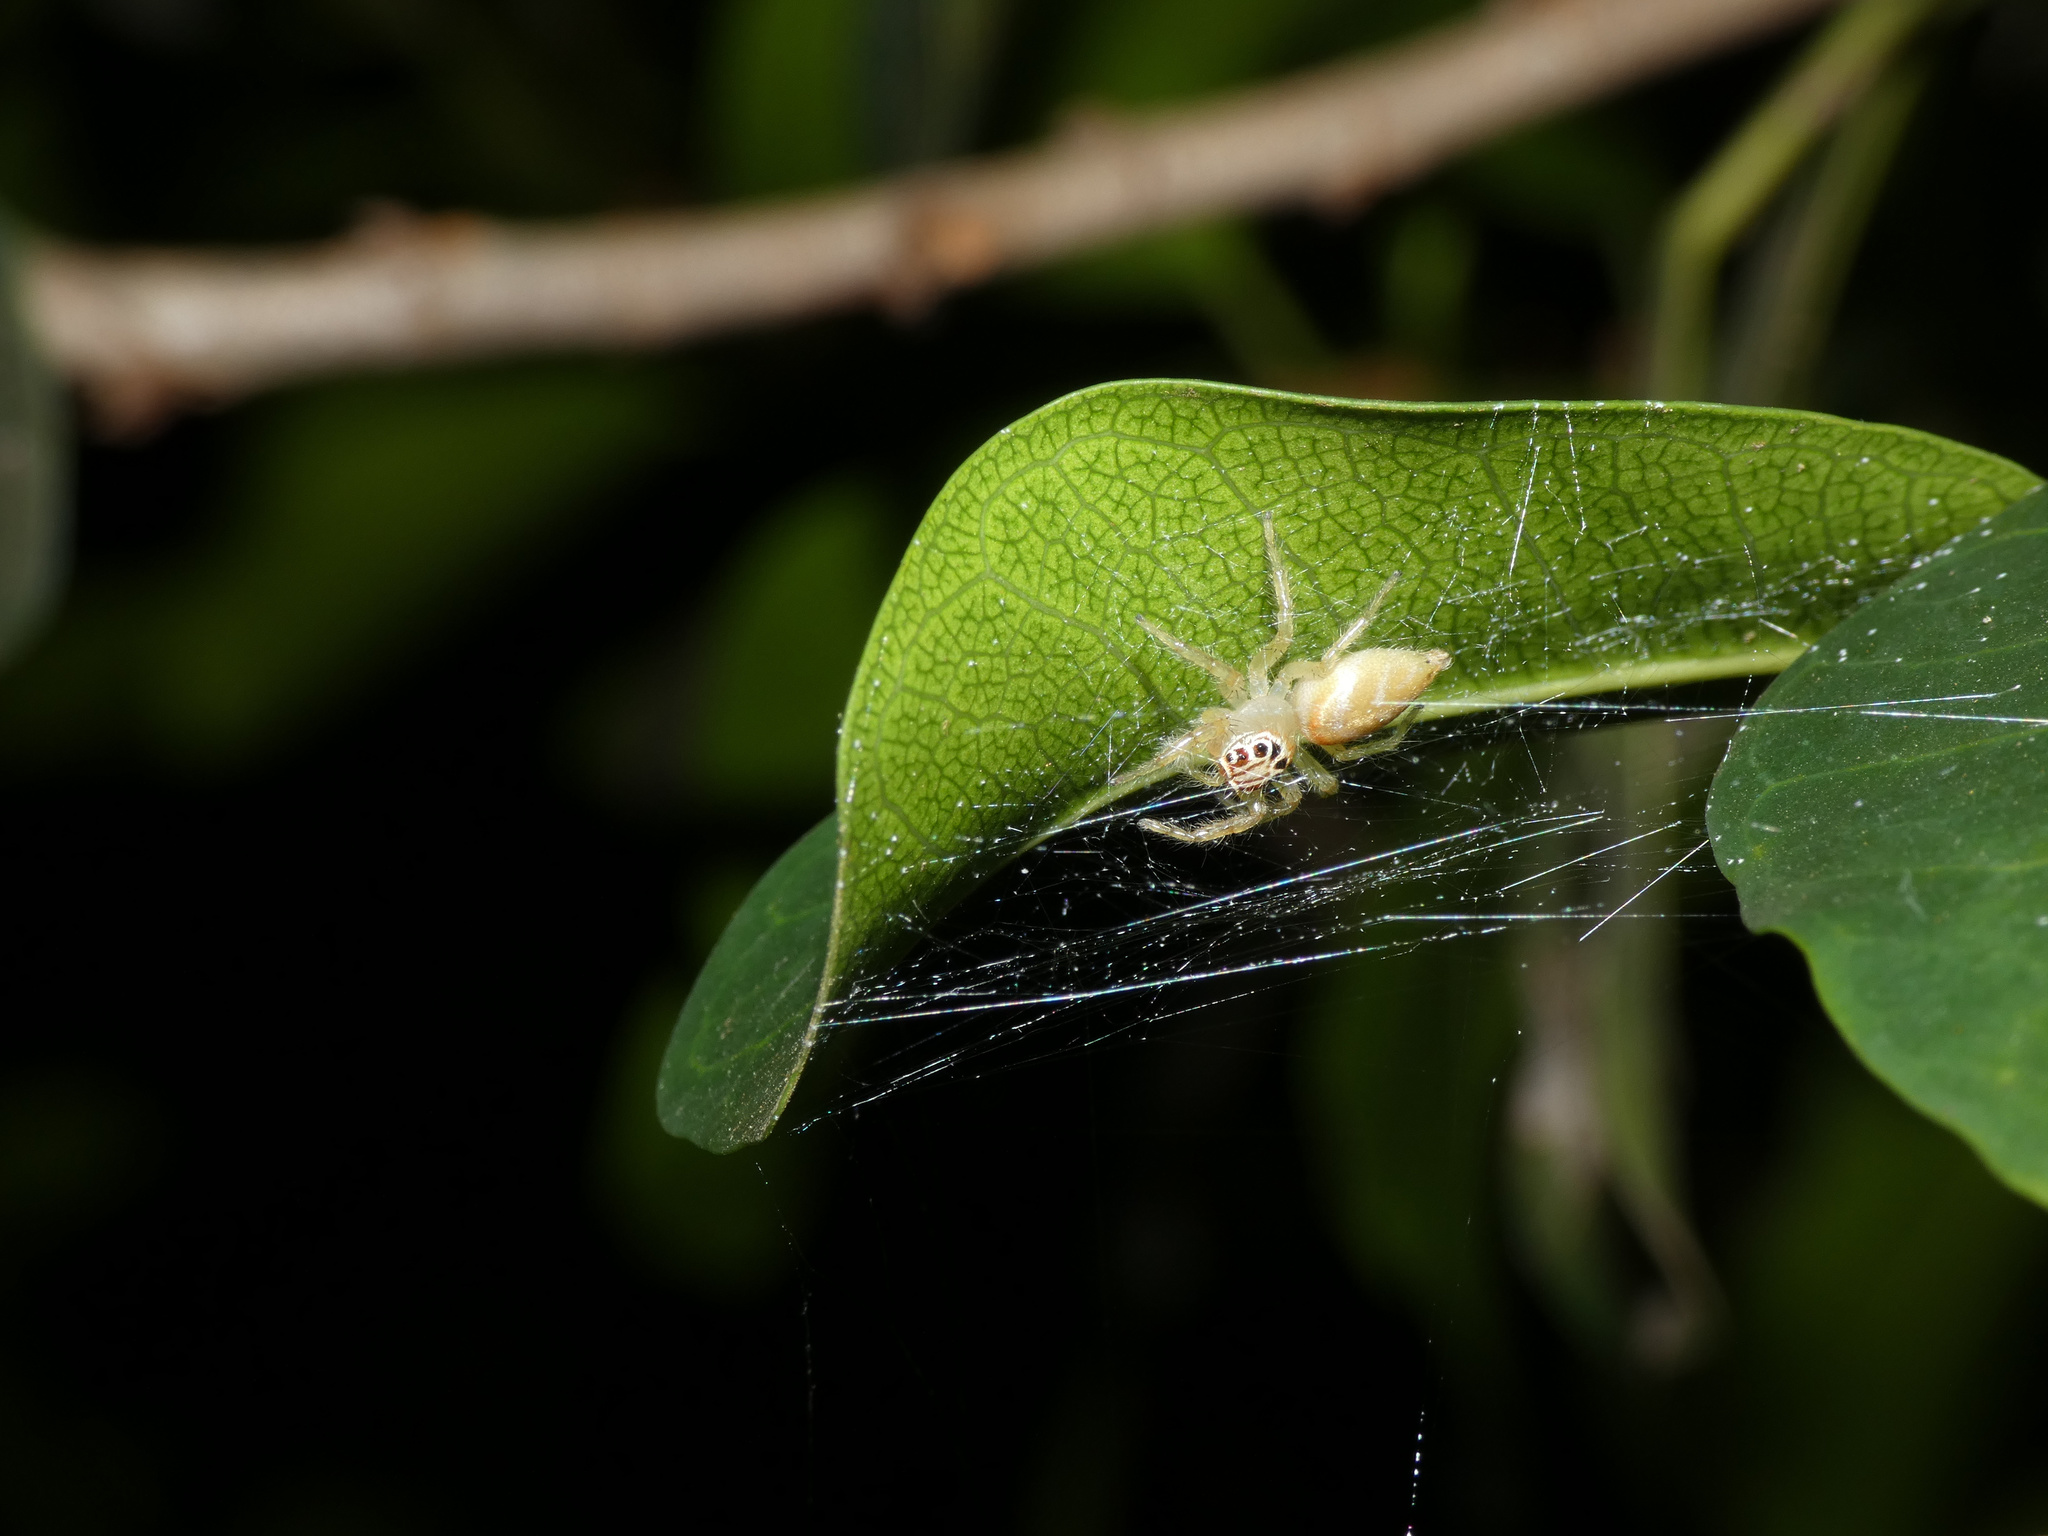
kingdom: Animalia
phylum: Arthropoda
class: Arachnida
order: Araneae
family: Salticidae
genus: Brancus
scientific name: Brancus mustelus
